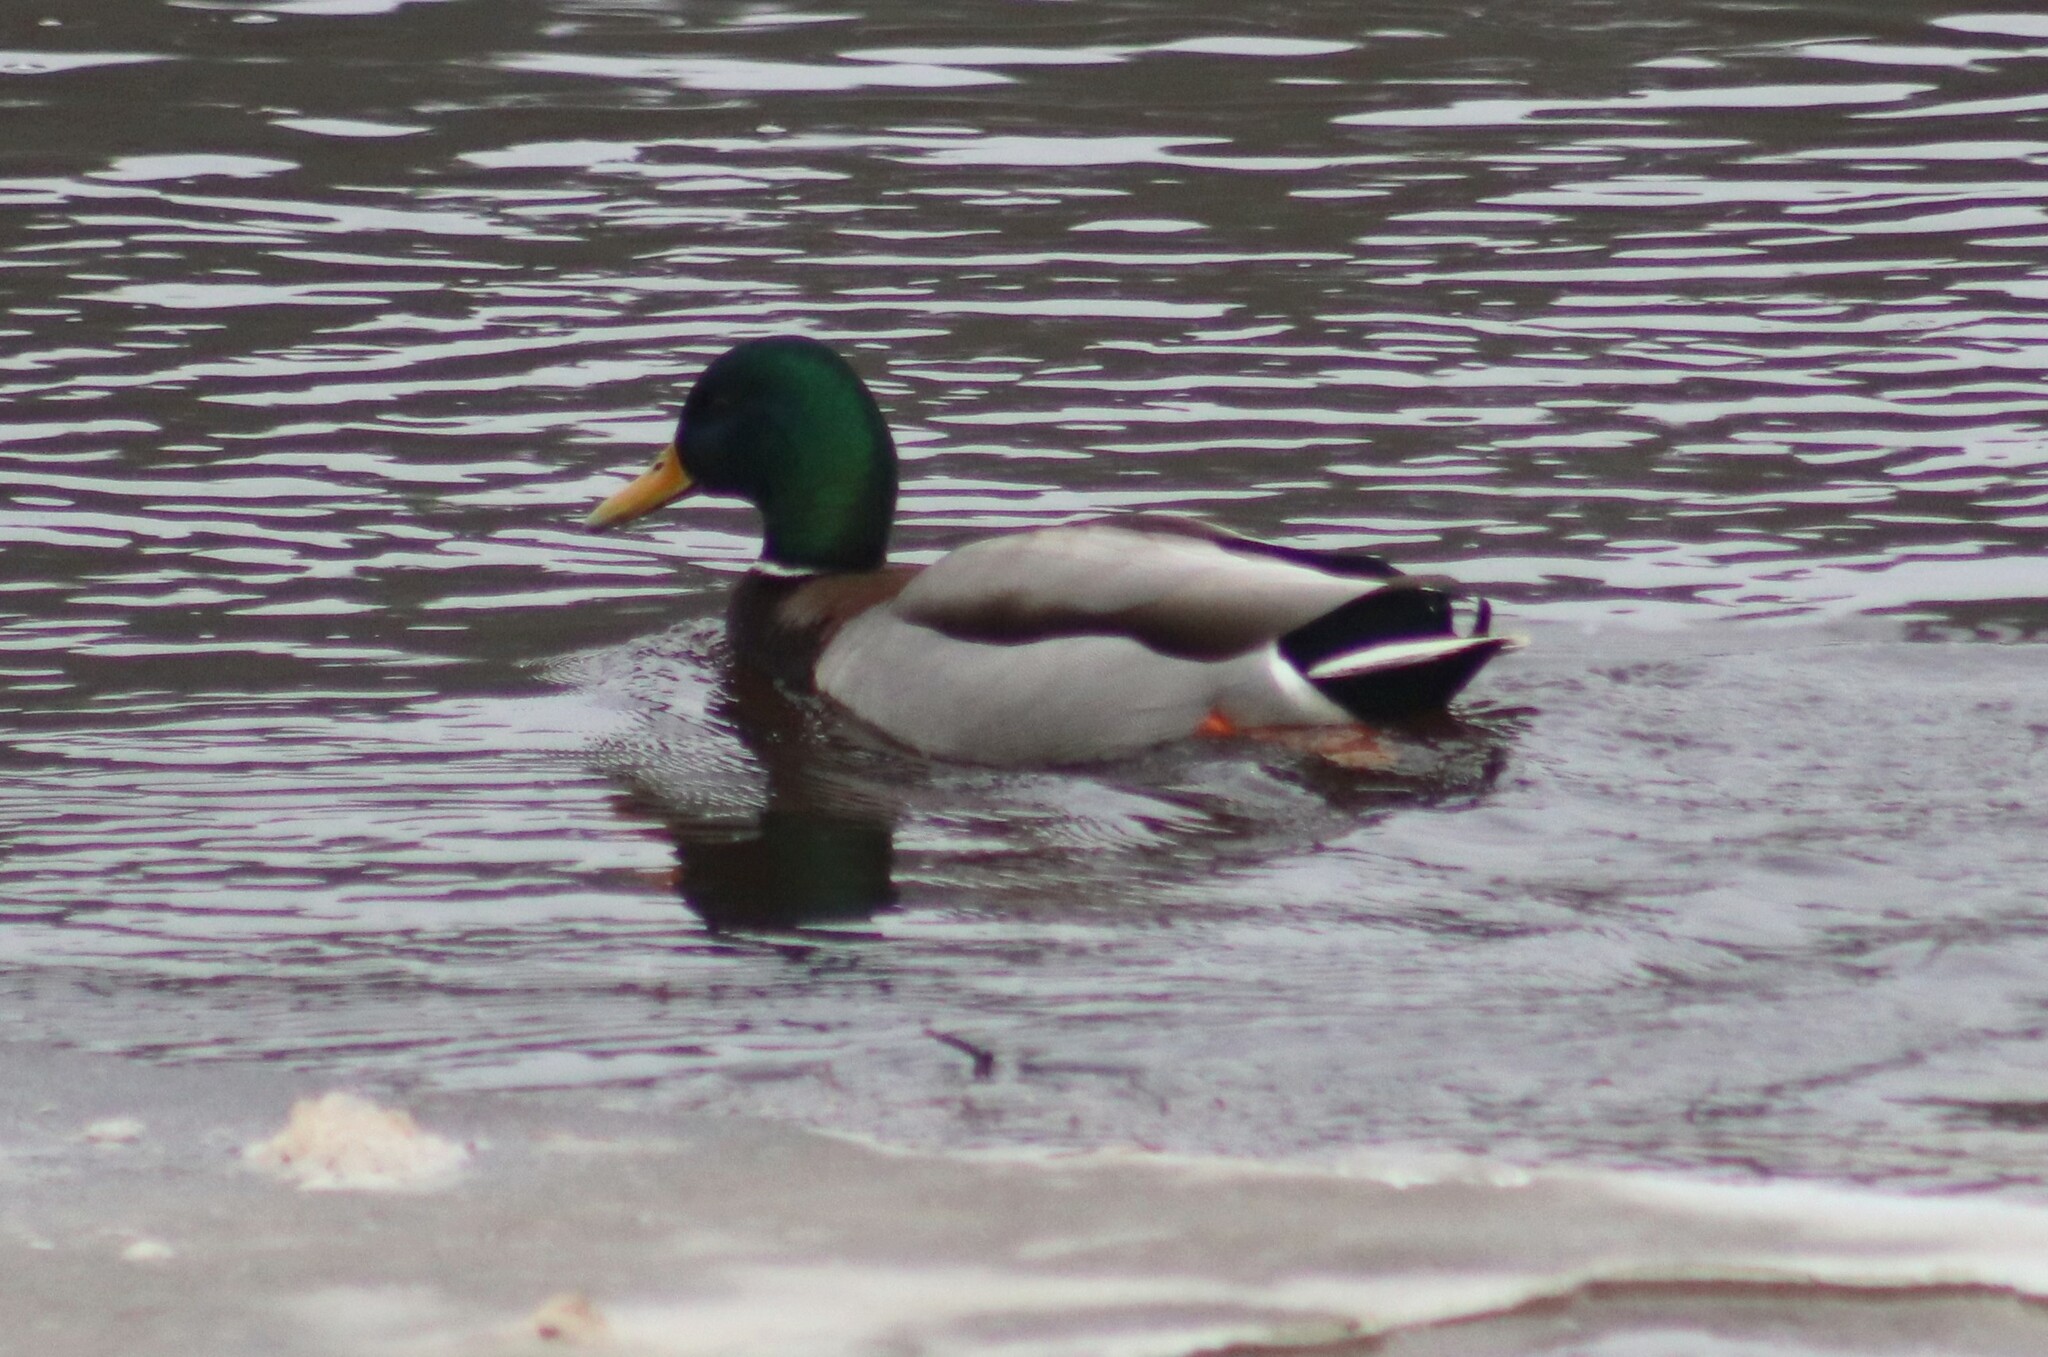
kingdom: Animalia
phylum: Chordata
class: Aves
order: Anseriformes
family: Anatidae
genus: Anas
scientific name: Anas platyrhynchos
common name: Mallard
